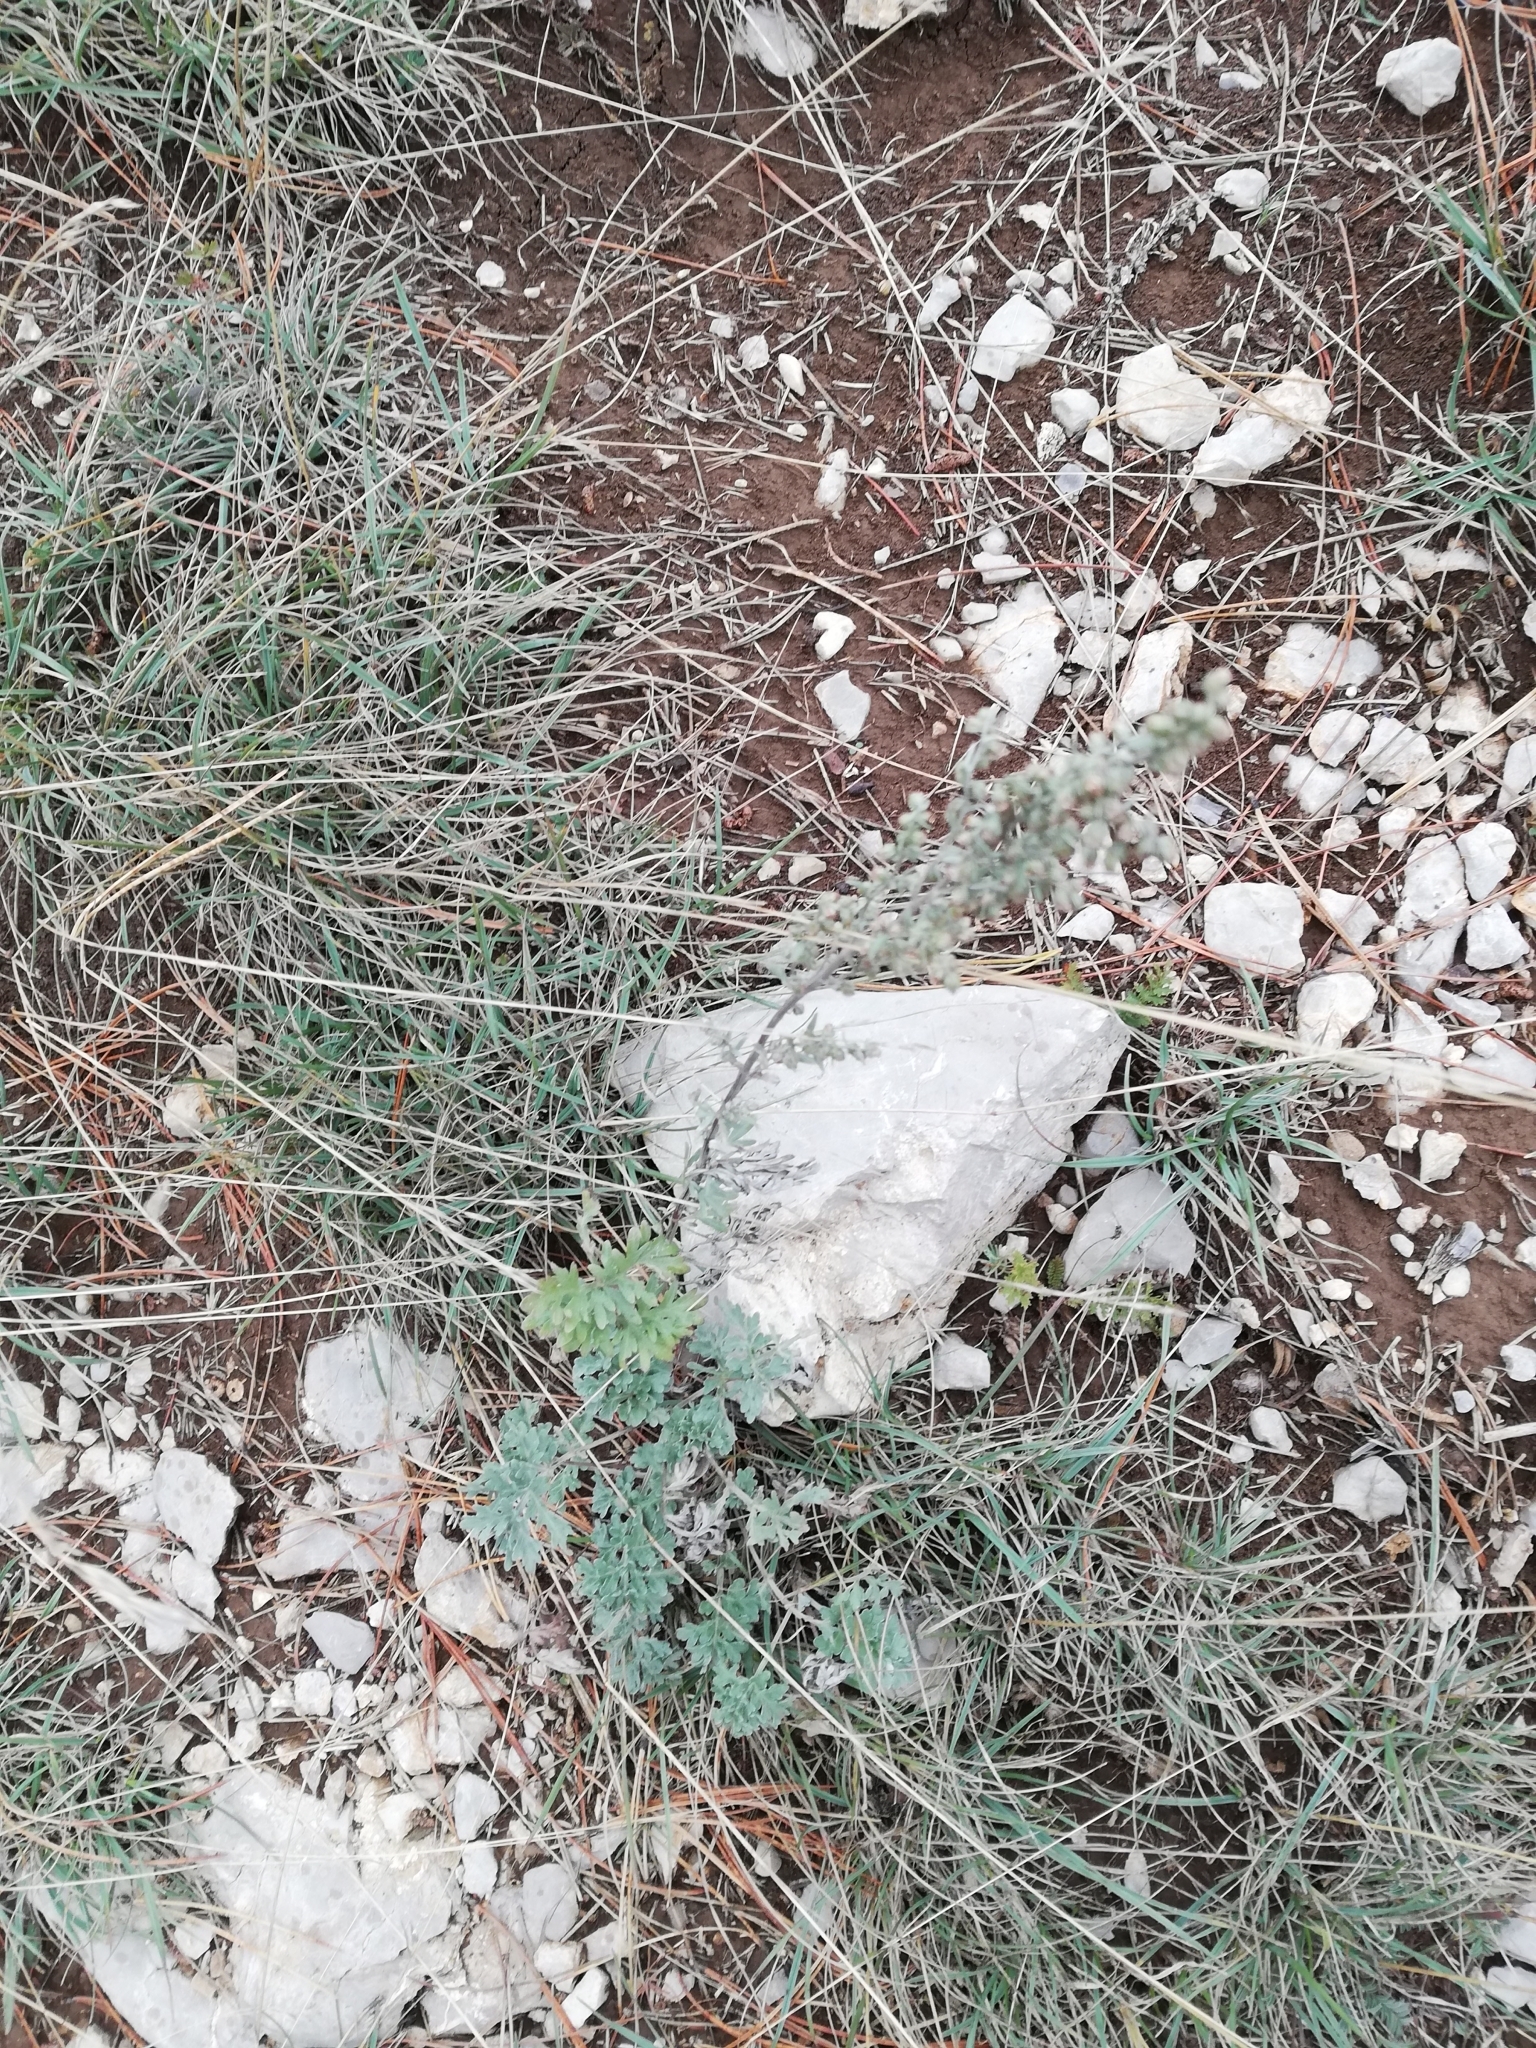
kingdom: Plantae
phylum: Tracheophyta
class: Magnoliopsida
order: Asterales
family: Asteraceae
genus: Artemisia
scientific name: Artemisia absinthium
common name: Wormwood
